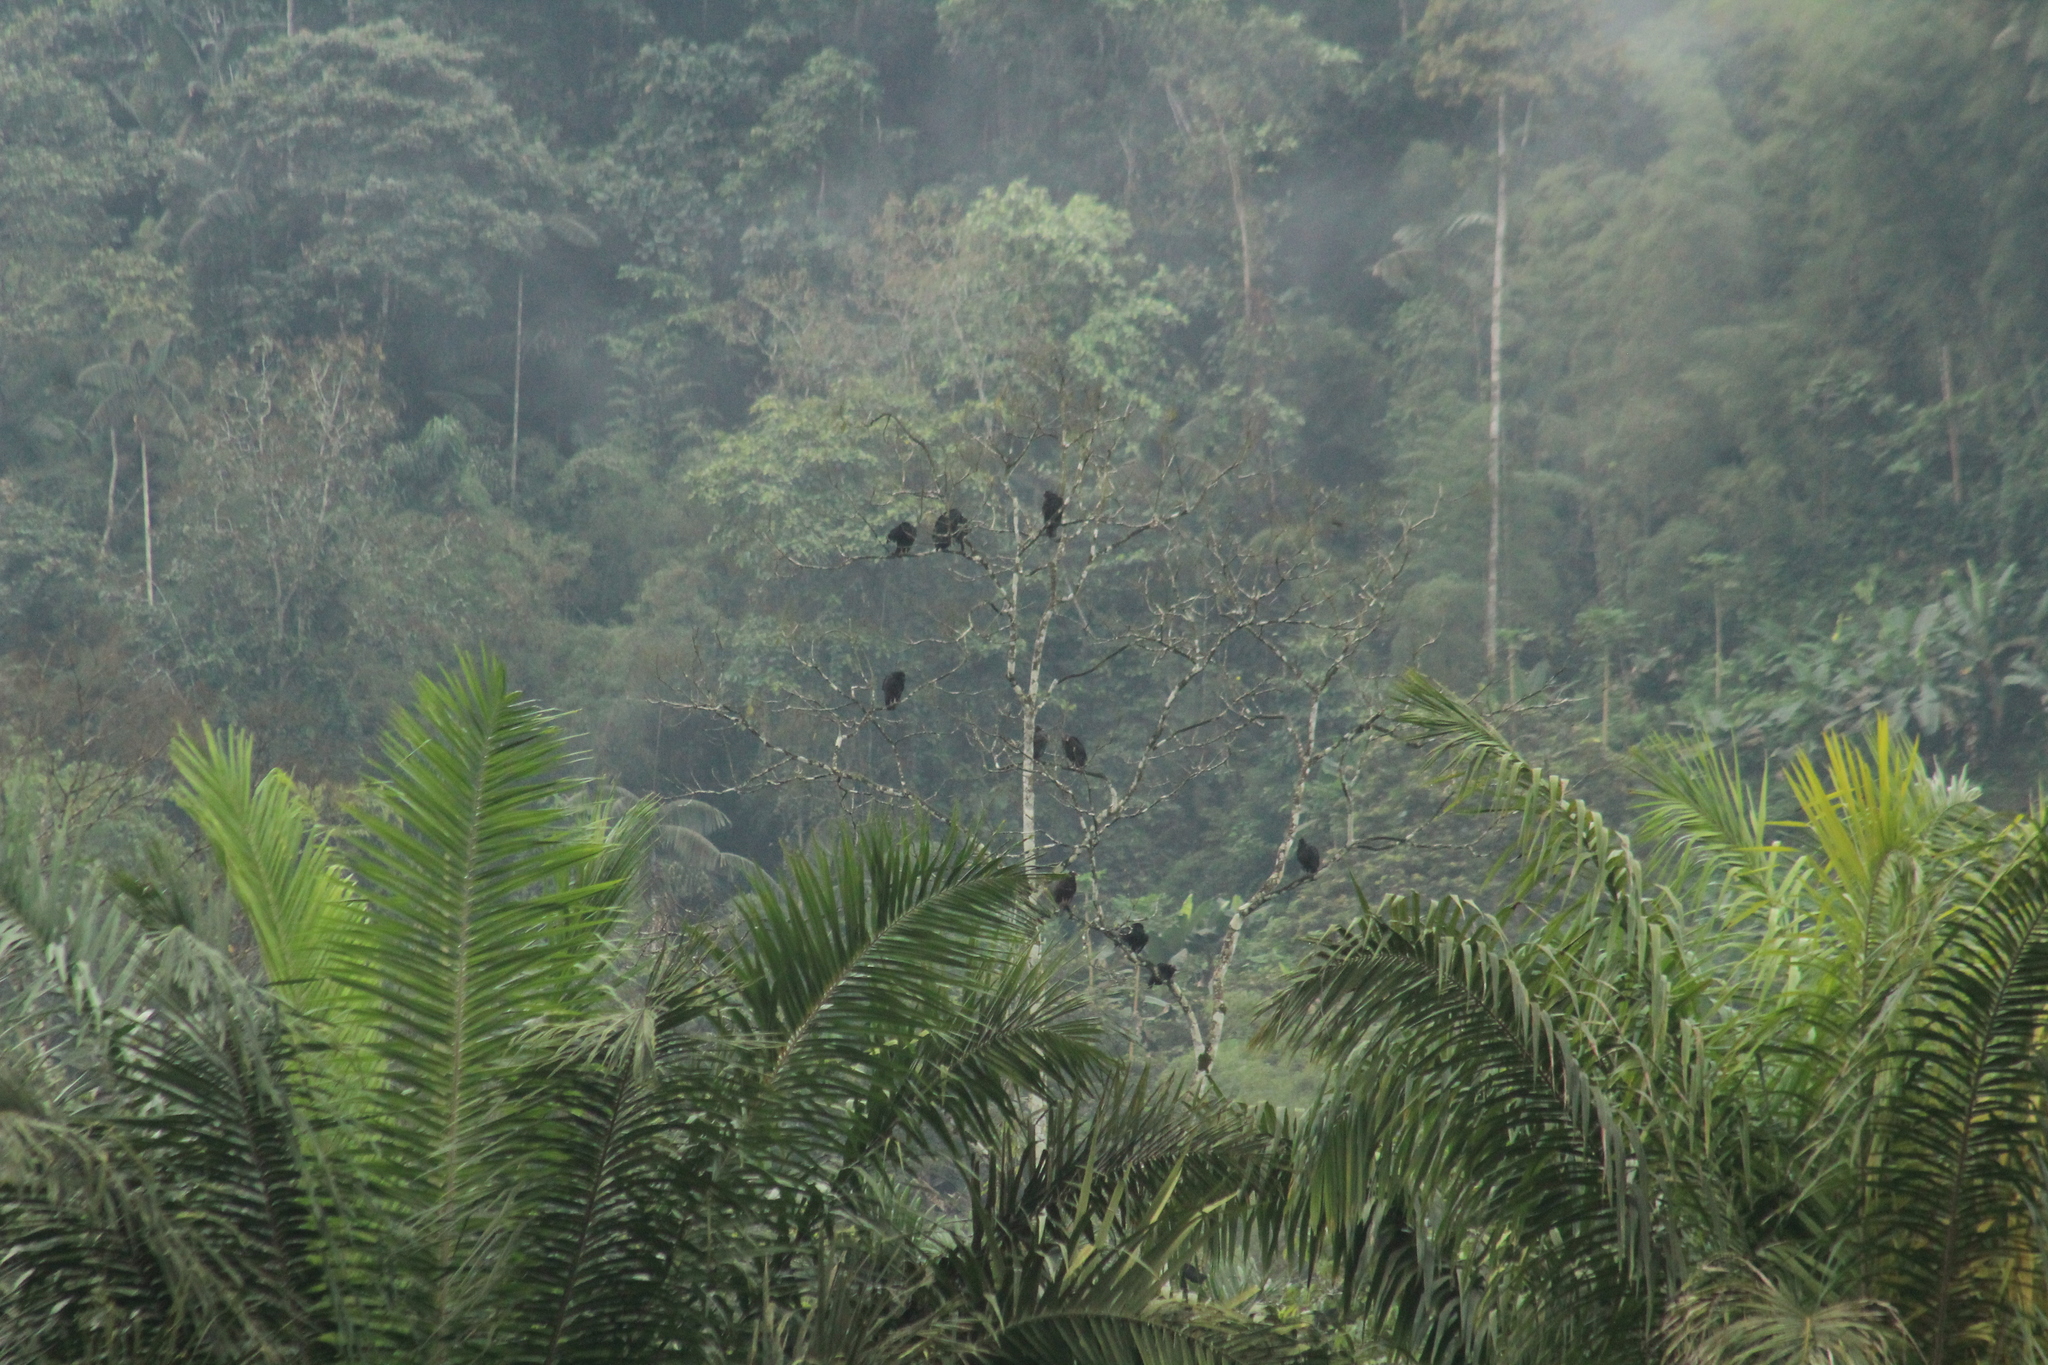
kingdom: Animalia
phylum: Chordata
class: Aves
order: Accipitriformes
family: Cathartidae
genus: Coragyps
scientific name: Coragyps atratus
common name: Black vulture
